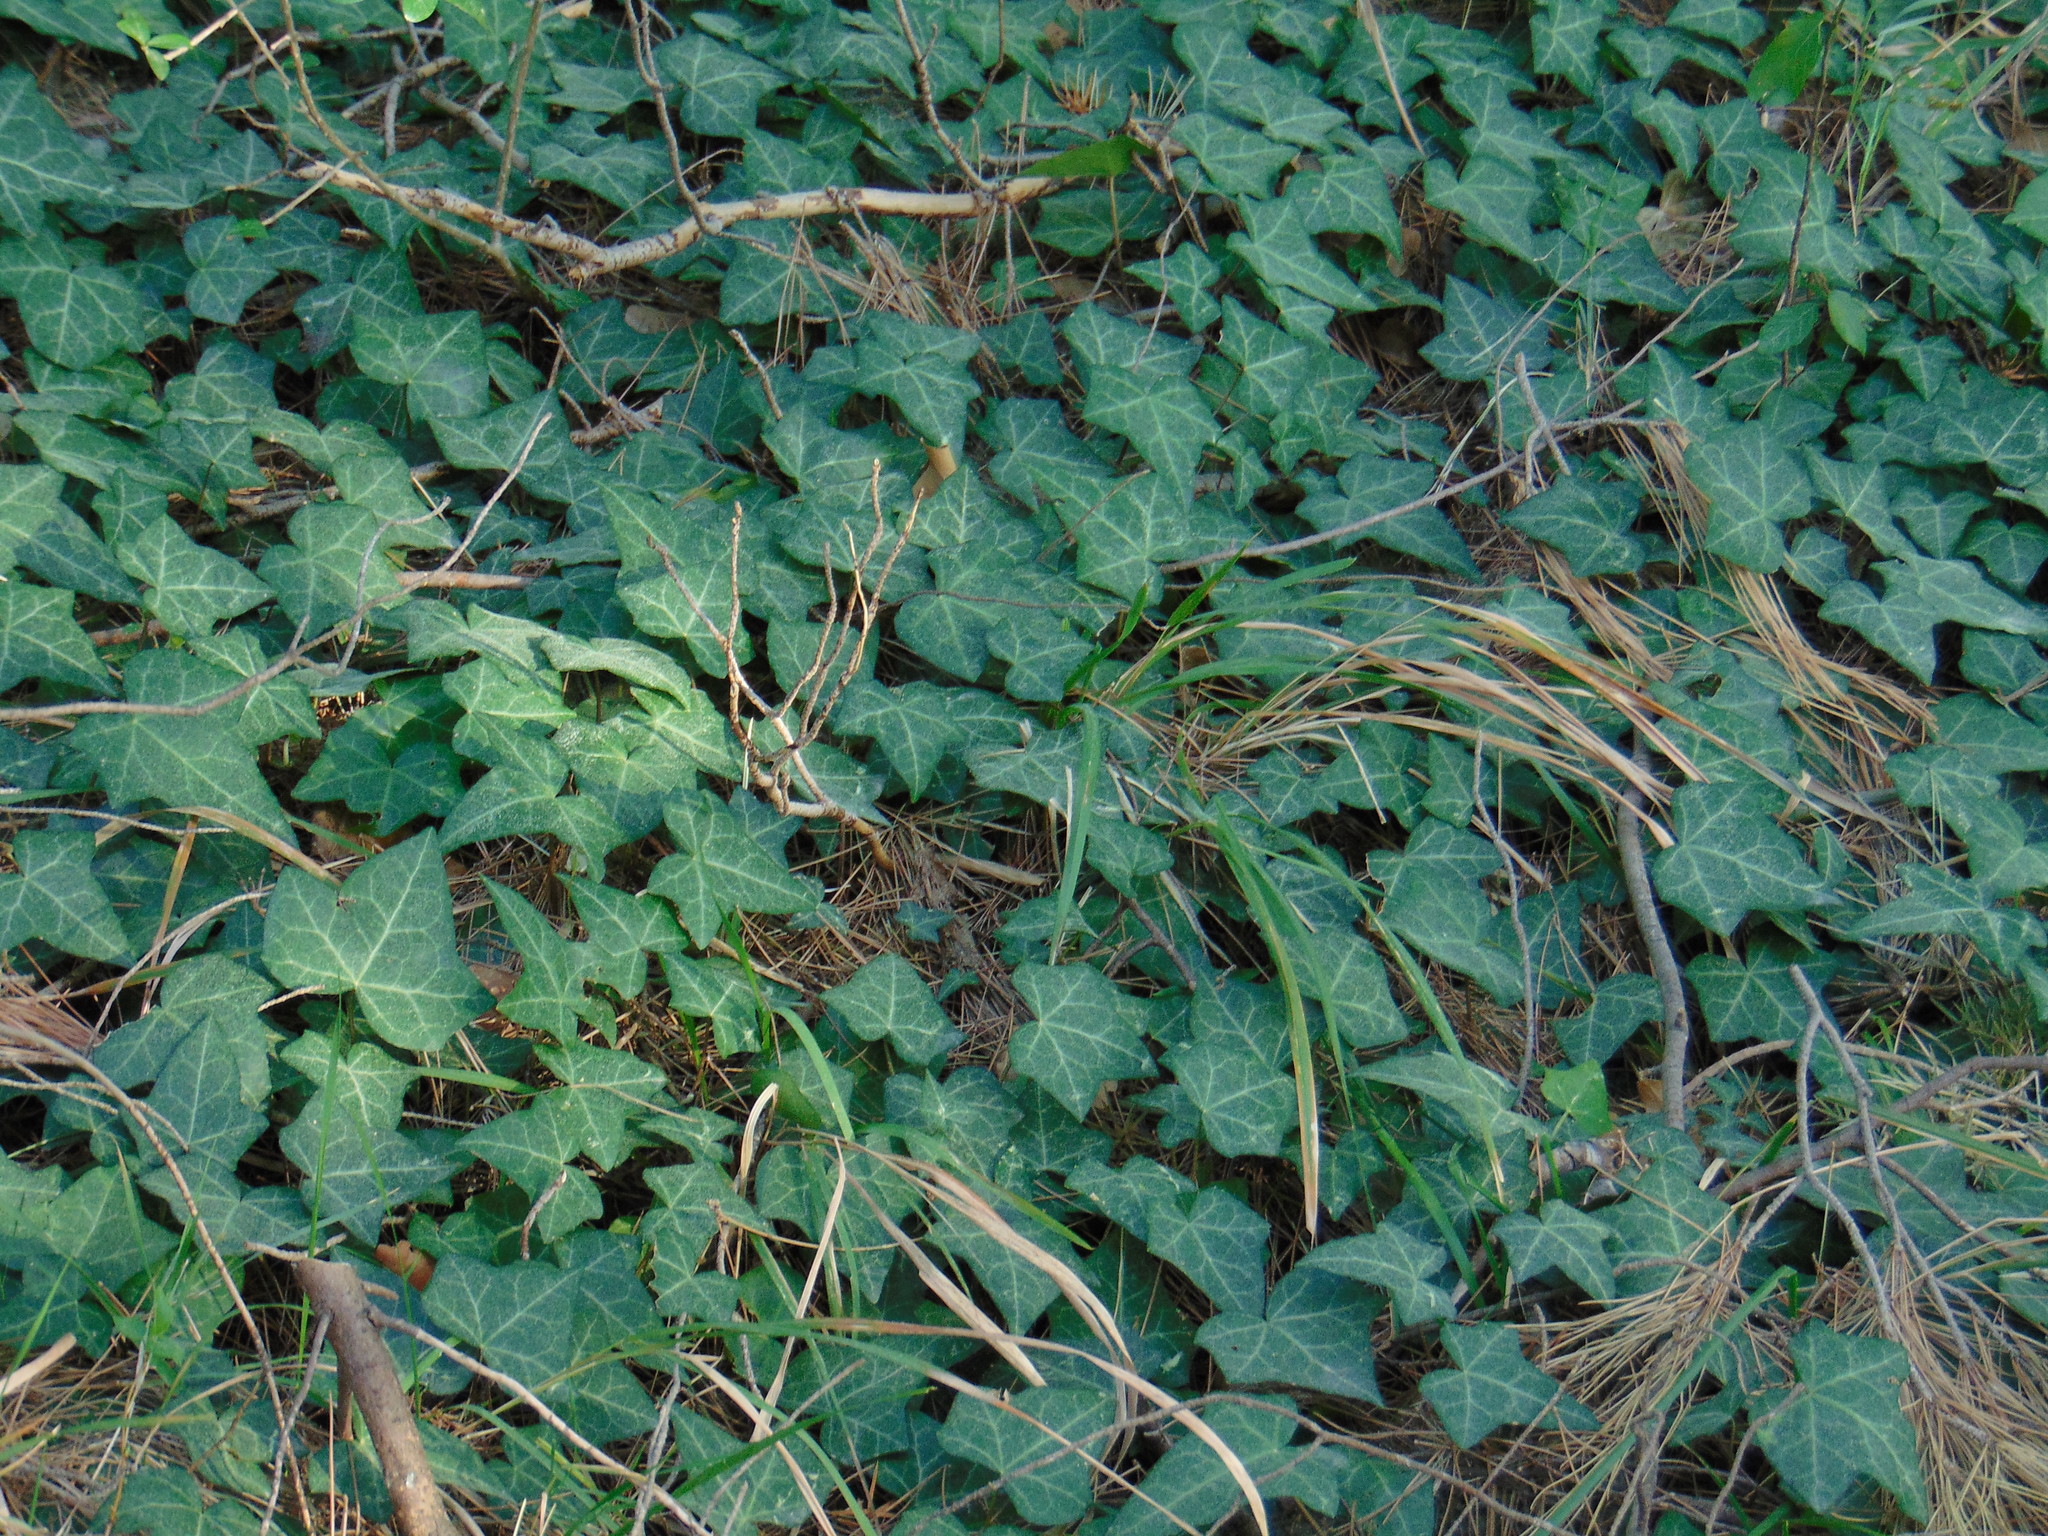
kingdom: Plantae
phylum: Tracheophyta
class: Magnoliopsida
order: Apiales
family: Araliaceae
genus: Hedera
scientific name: Hedera helix
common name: Ivy
